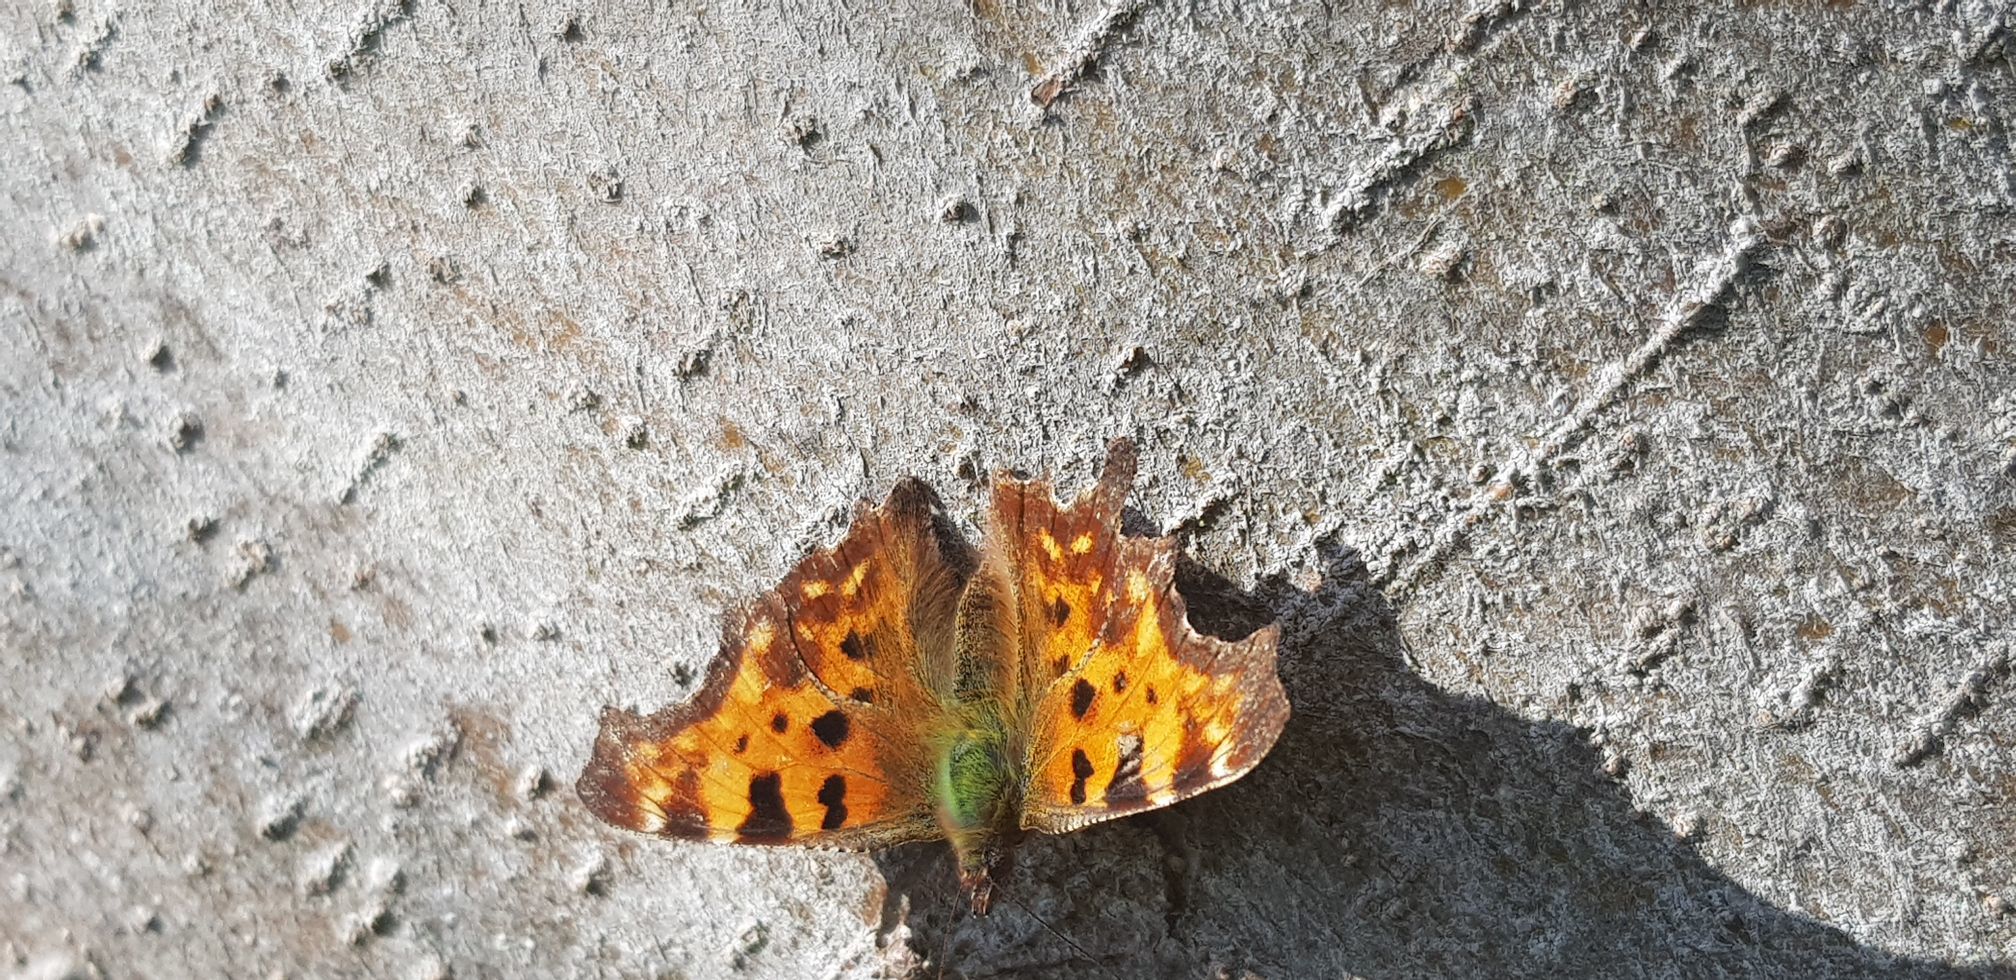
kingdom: Animalia
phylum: Arthropoda
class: Insecta
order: Lepidoptera
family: Nymphalidae
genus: Polygonia
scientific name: Polygonia c-album
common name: Comma
